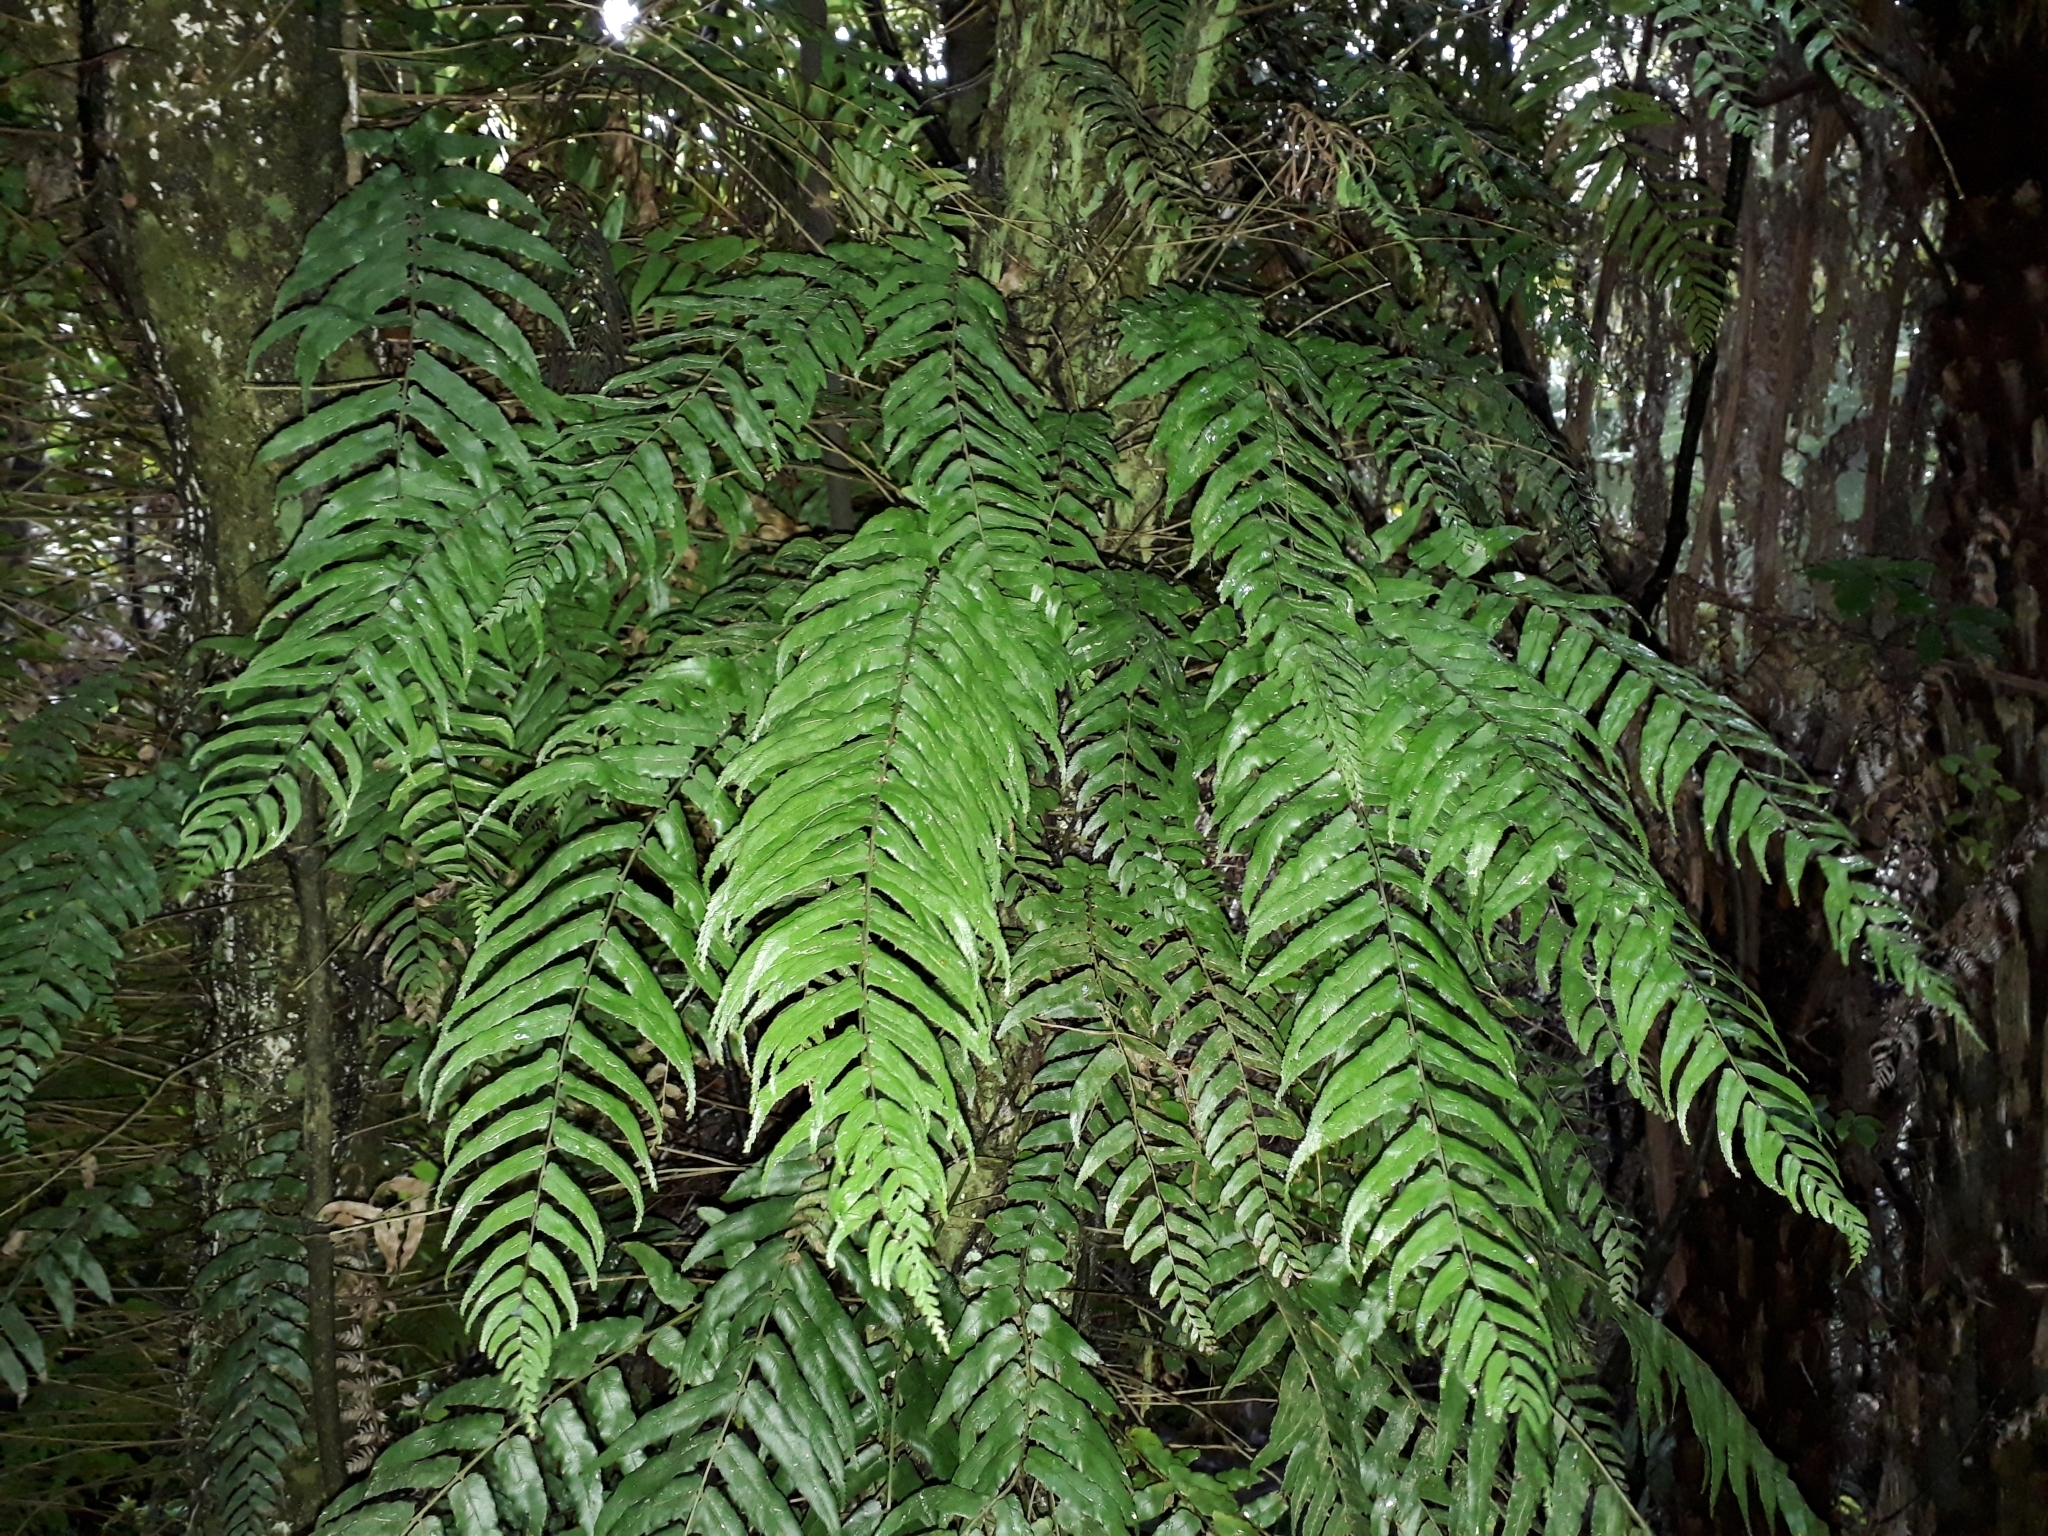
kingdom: Plantae
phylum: Tracheophyta
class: Polypodiopsida
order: Polypodiales
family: Blechnaceae
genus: Icarus
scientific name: Icarus filiformis
